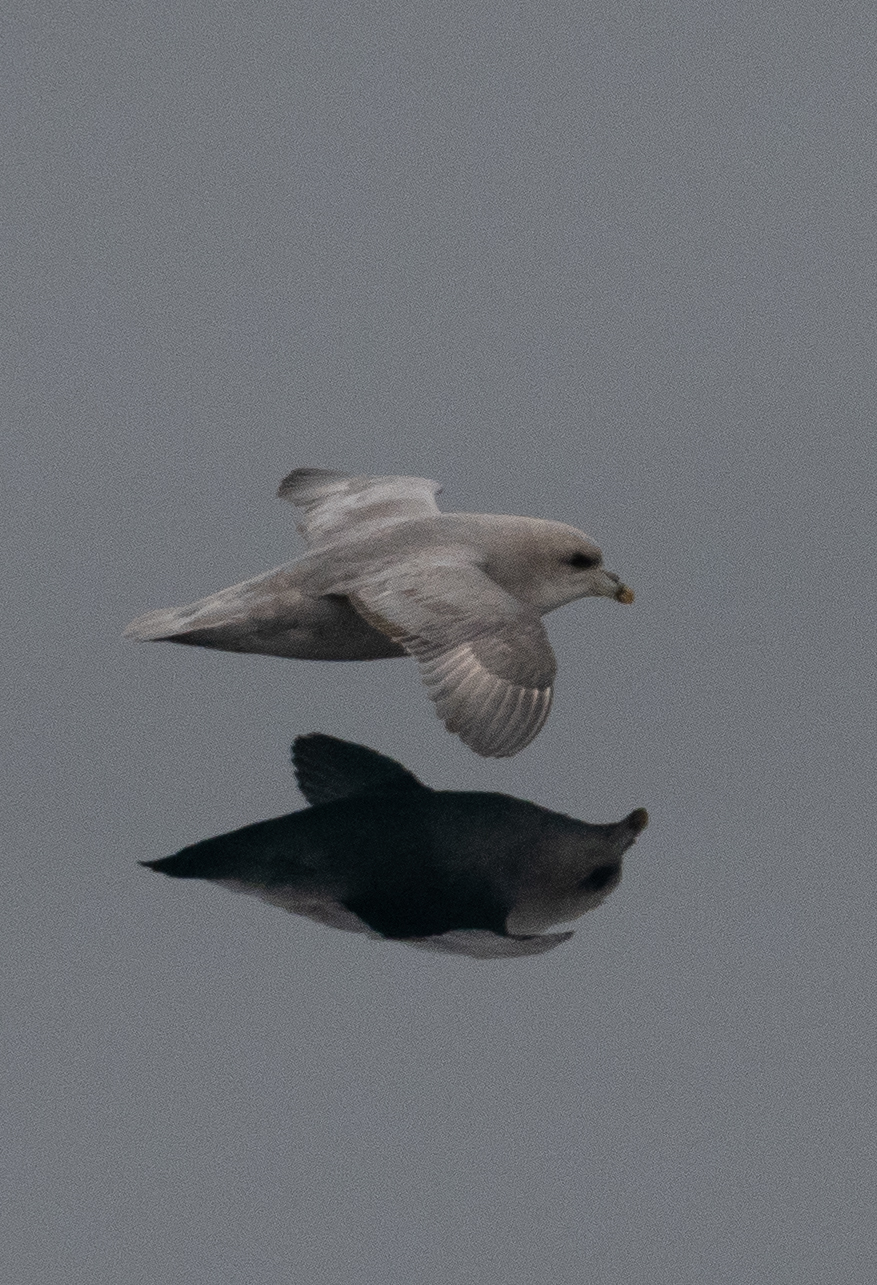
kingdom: Animalia
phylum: Chordata
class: Aves
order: Procellariiformes
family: Procellariidae
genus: Fulmarus
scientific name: Fulmarus glacialis
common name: Northern fulmar
